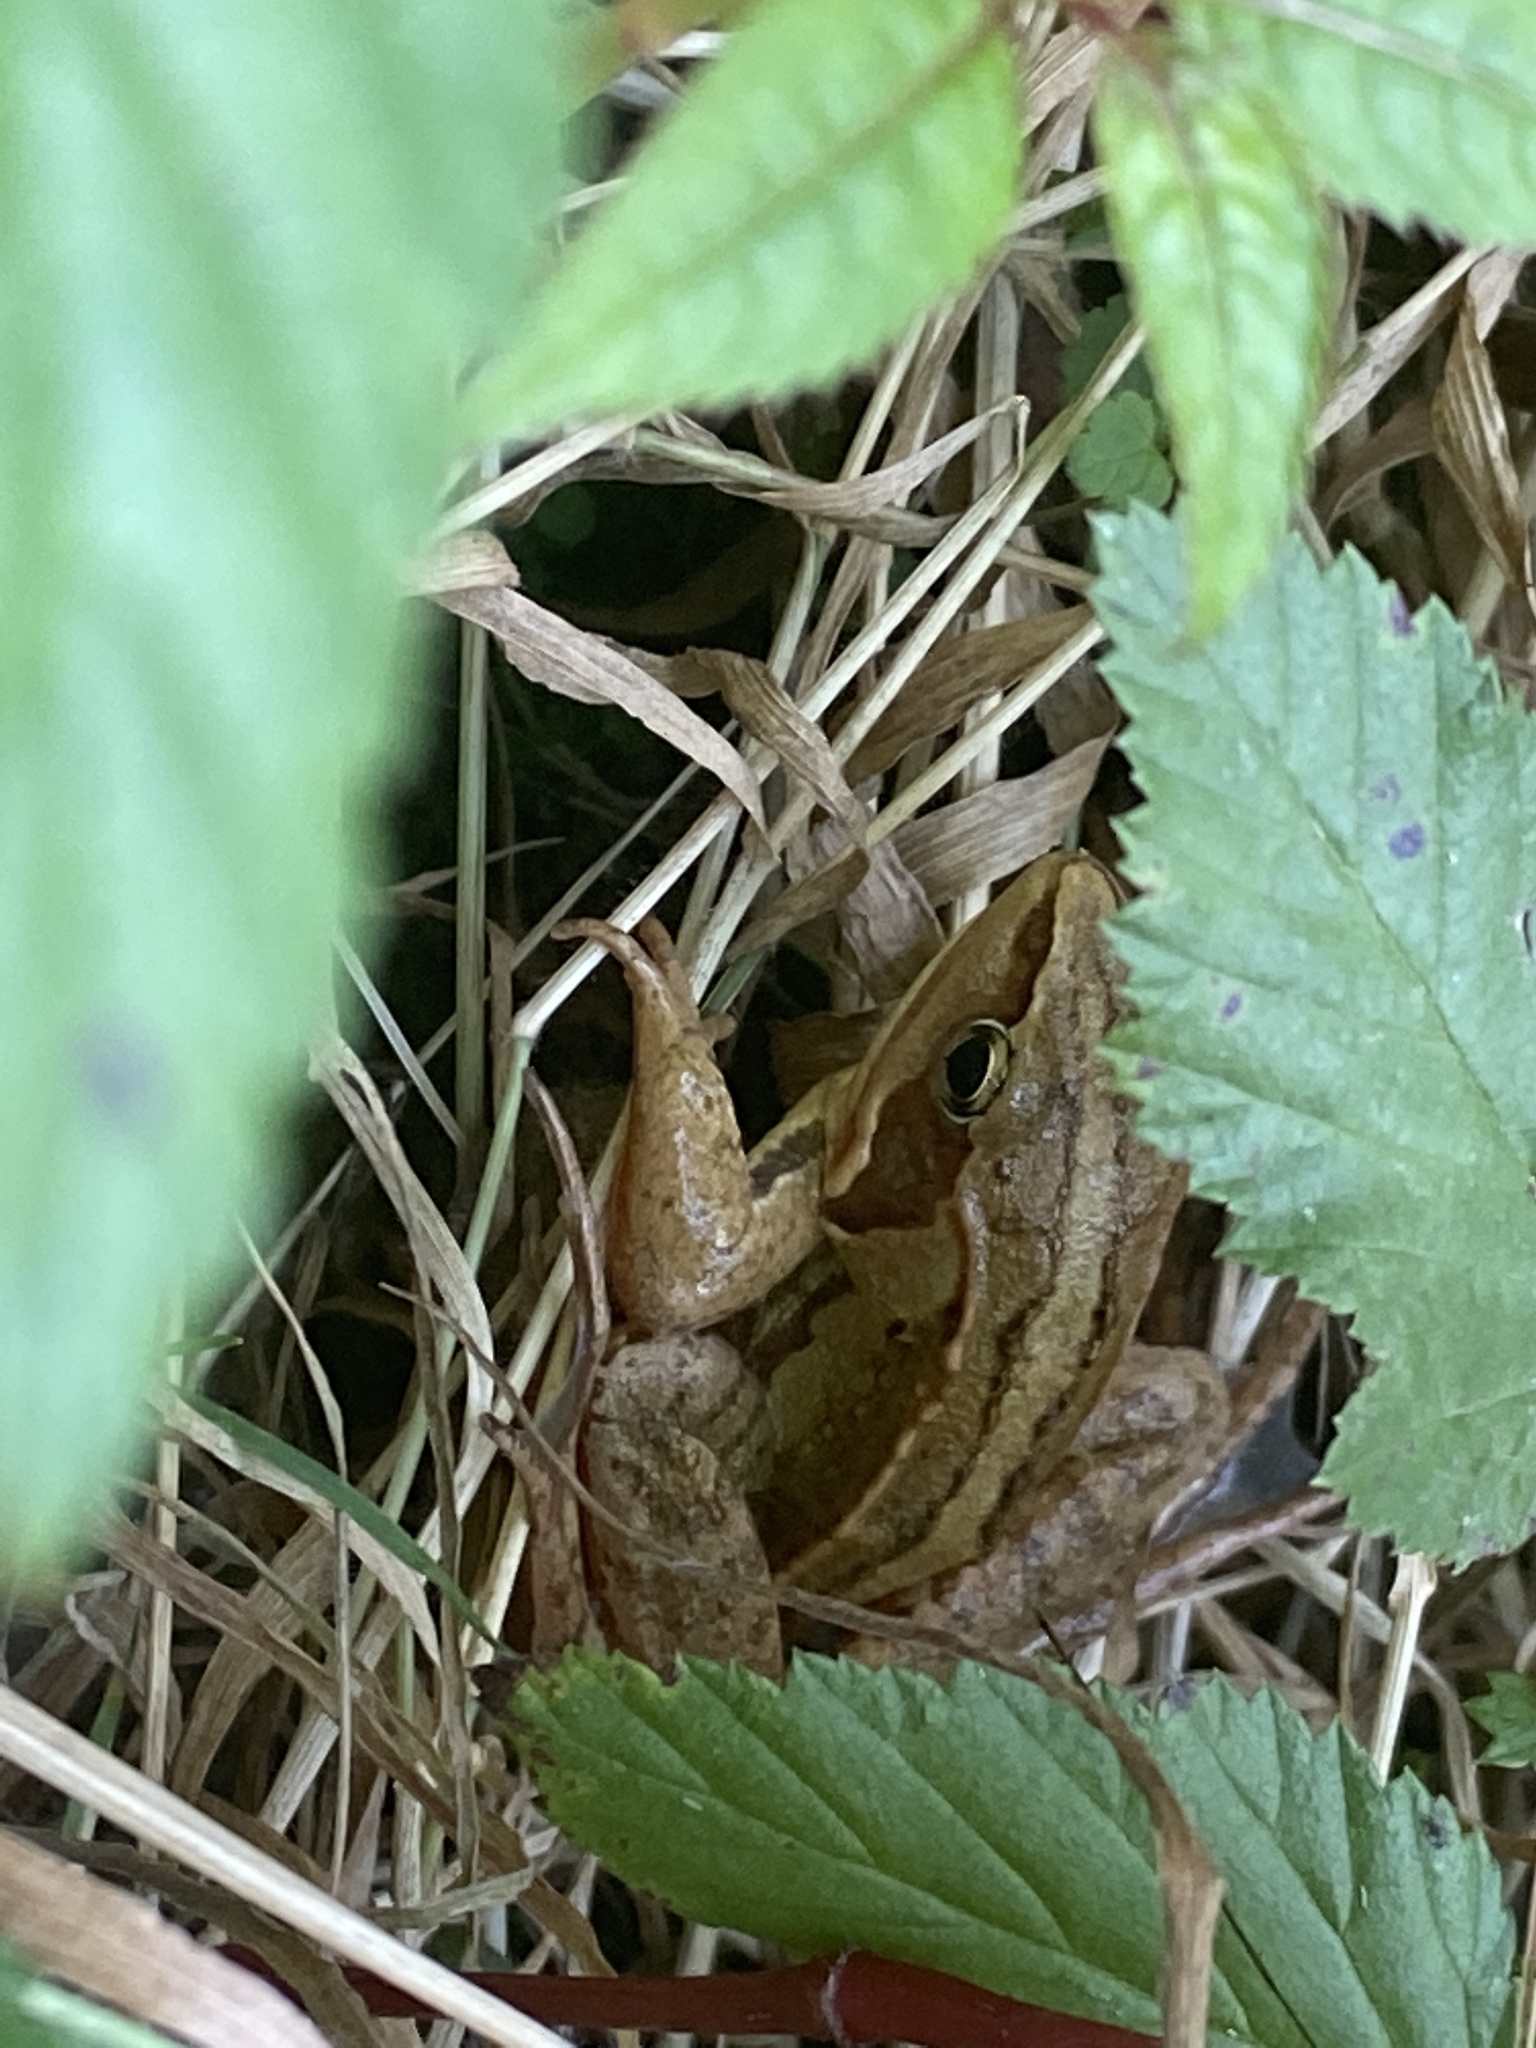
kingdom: Animalia
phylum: Chordata
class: Amphibia
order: Anura
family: Ranidae
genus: Rana
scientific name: Rana arvalis
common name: Moor frog
